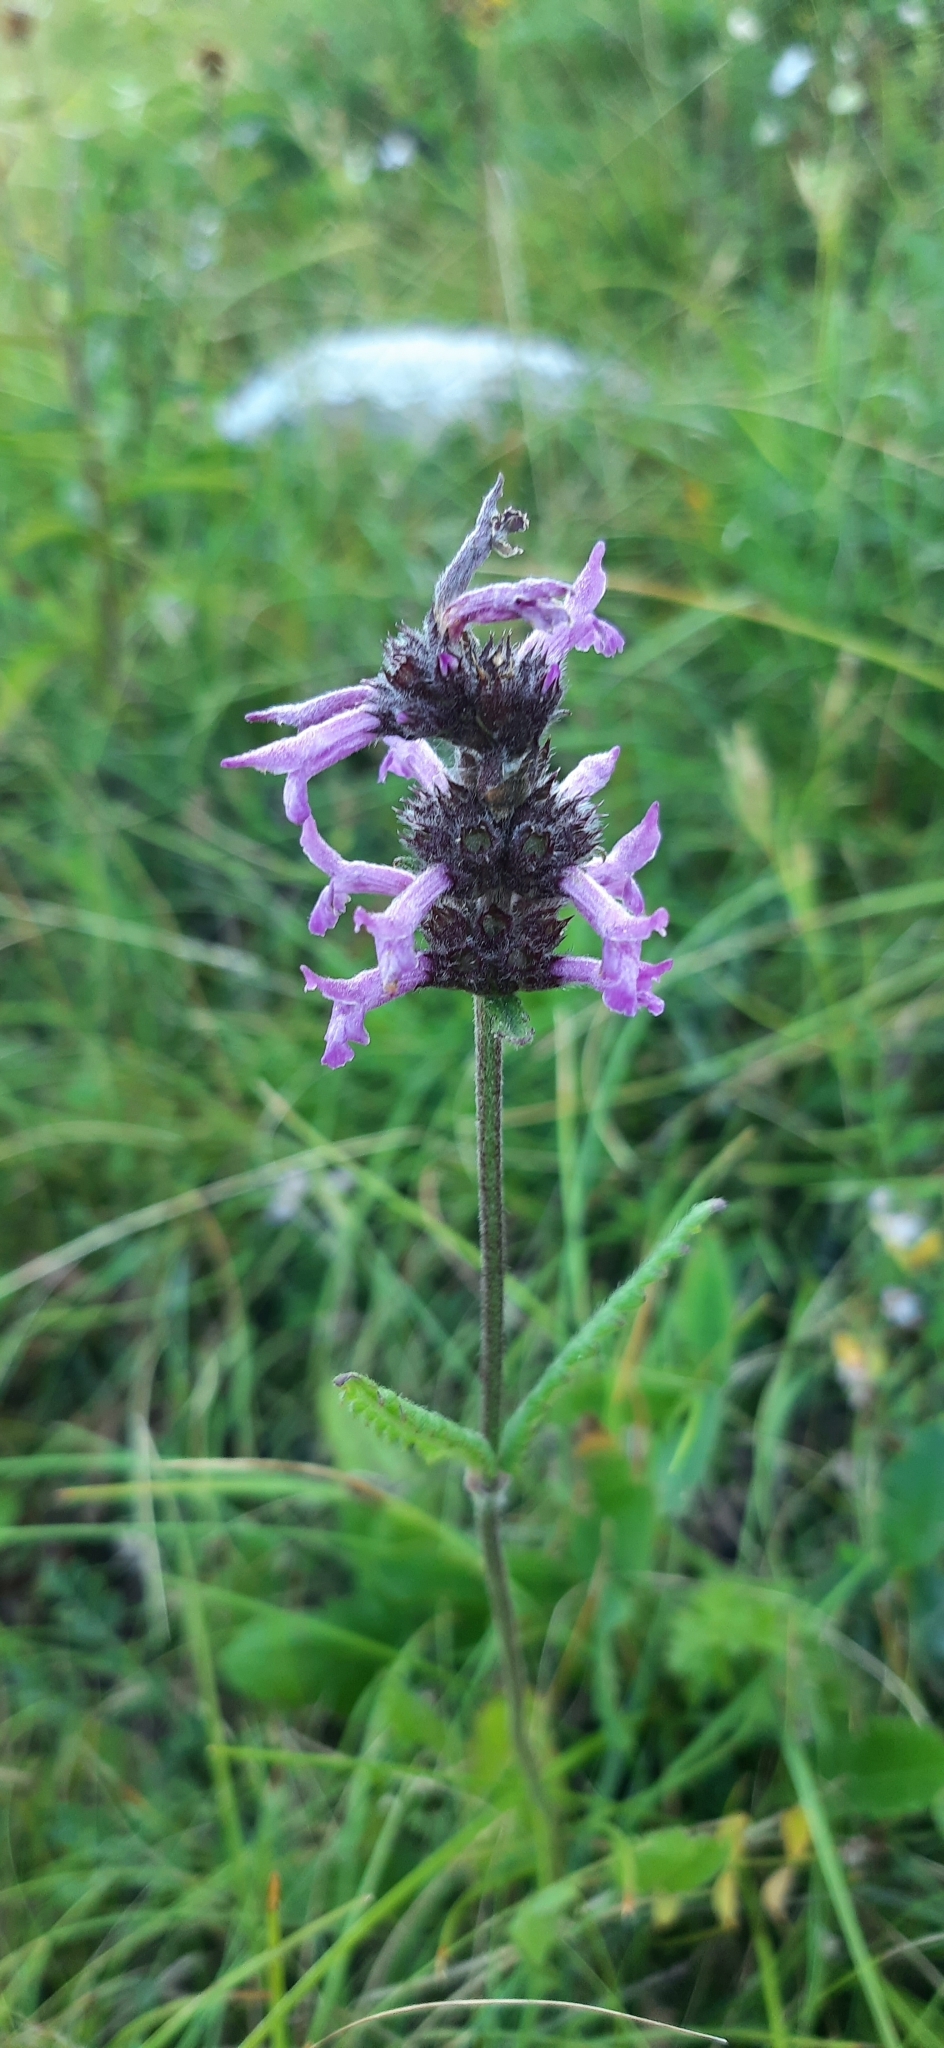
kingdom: Plantae
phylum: Tracheophyta
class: Magnoliopsida
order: Lamiales
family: Lamiaceae
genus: Betonica
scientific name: Betonica officinalis
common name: Bishop's-wort
